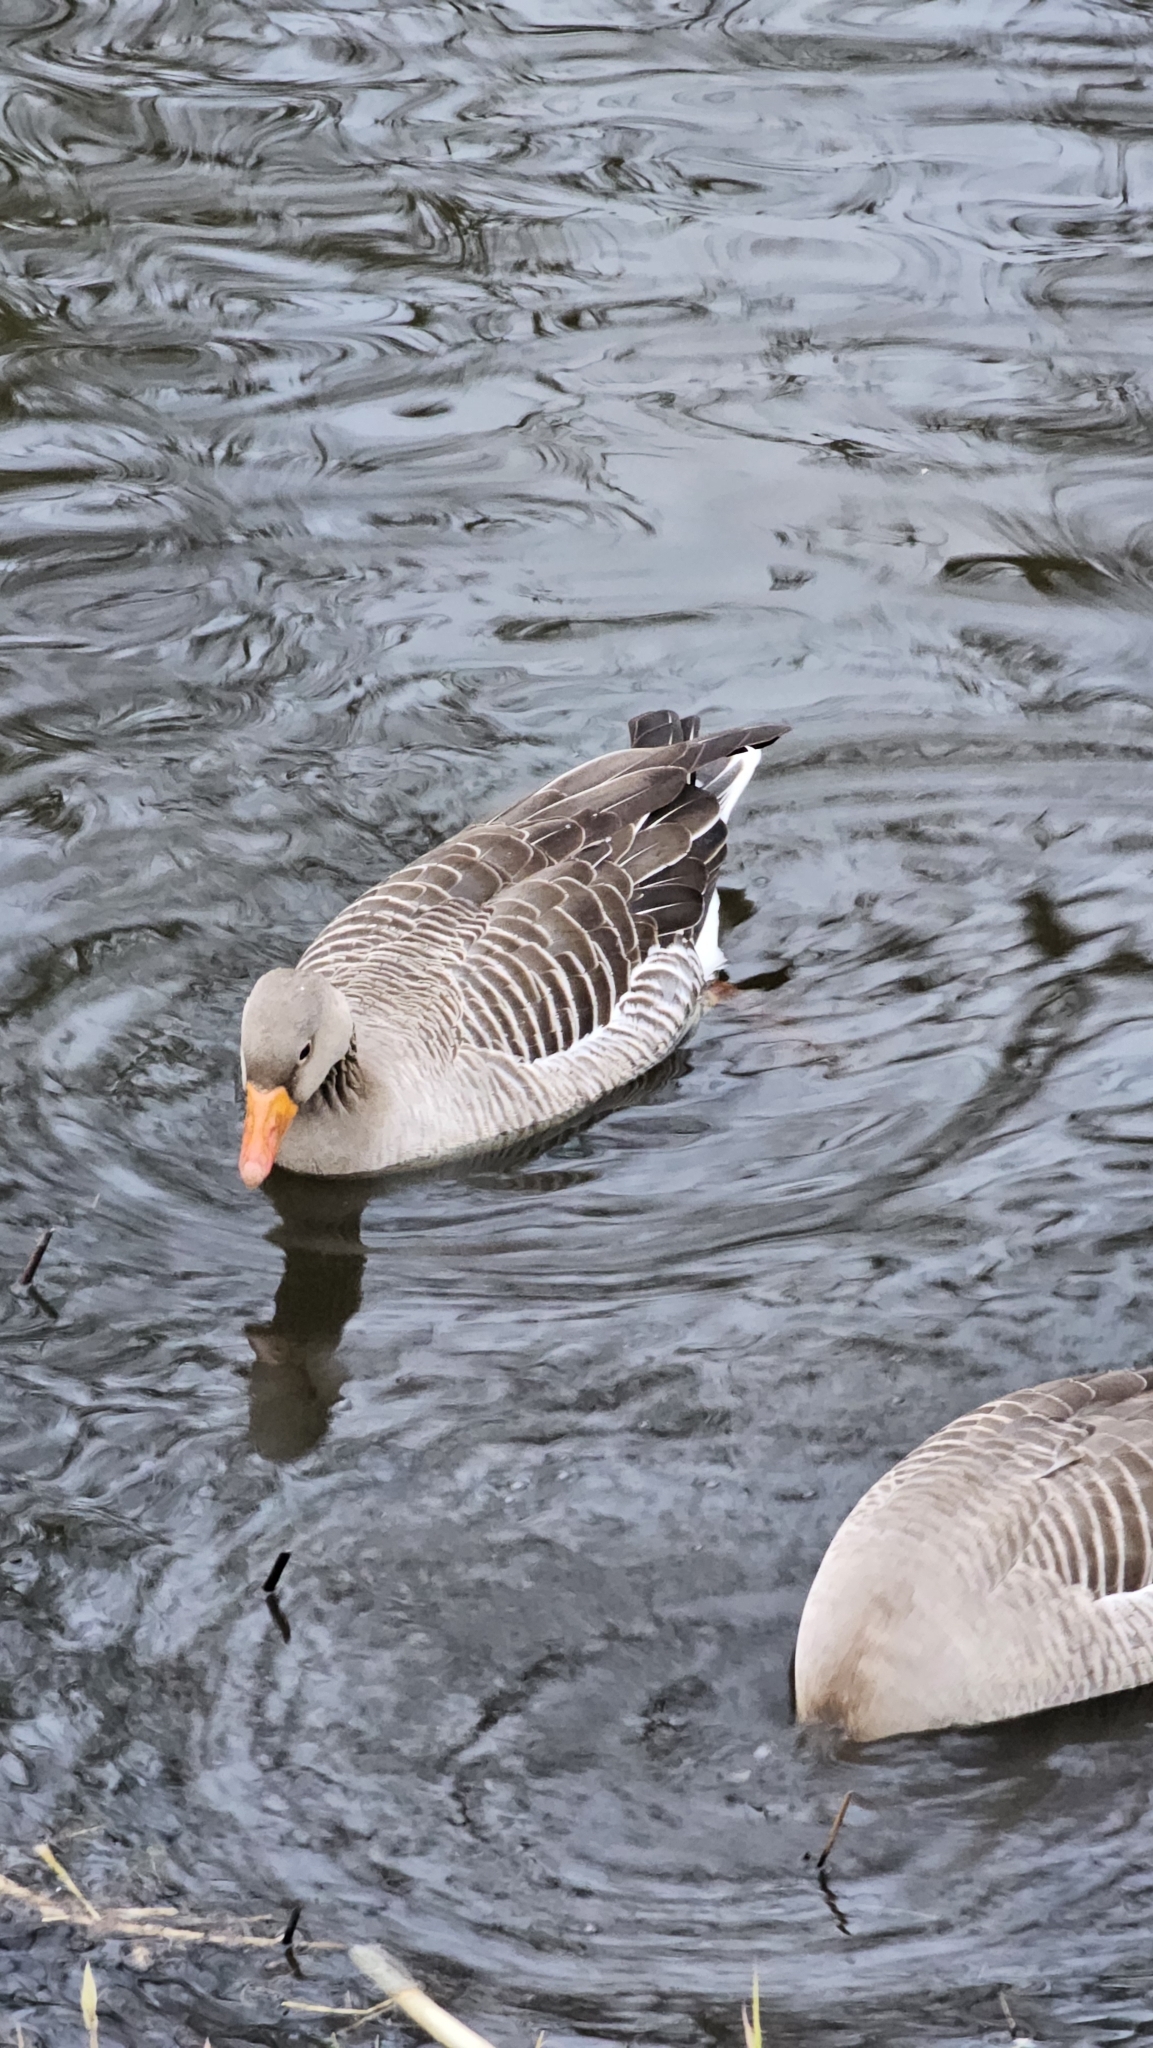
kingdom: Animalia
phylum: Chordata
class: Aves
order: Anseriformes
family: Anatidae
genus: Anser
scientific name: Anser anser
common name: Greylag goose
